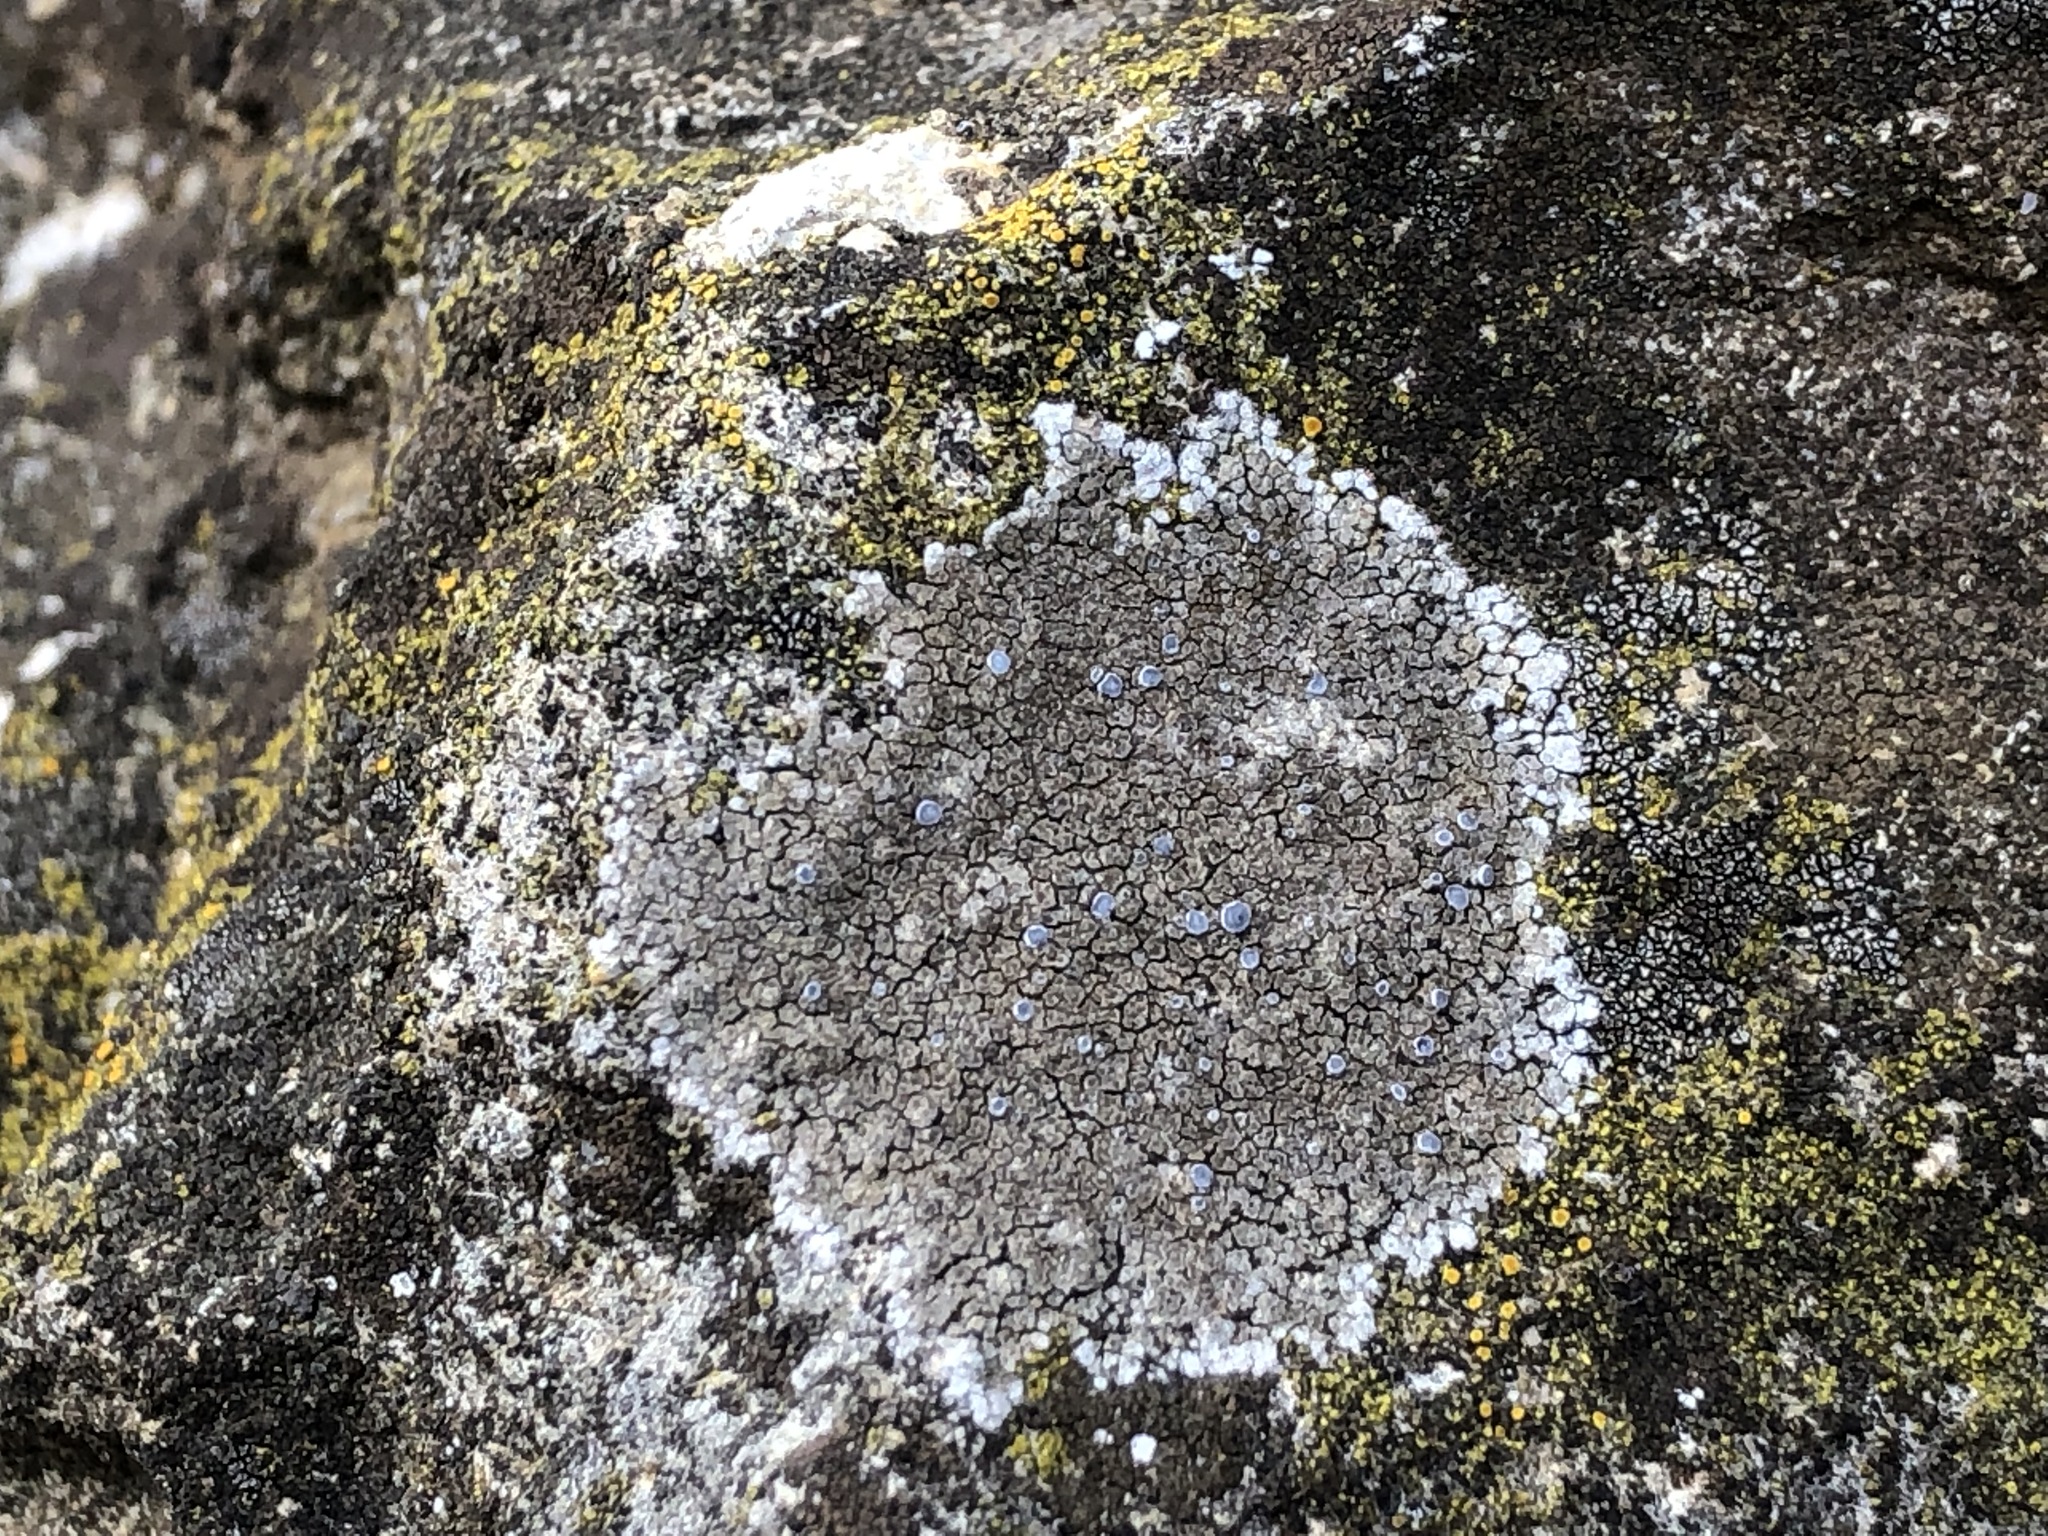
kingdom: Fungi
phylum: Ascomycota
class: Lecanoromycetes
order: Teloschistales
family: Teloschistaceae
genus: Pyrenodesmia
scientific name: Pyrenodesmia variabilis
